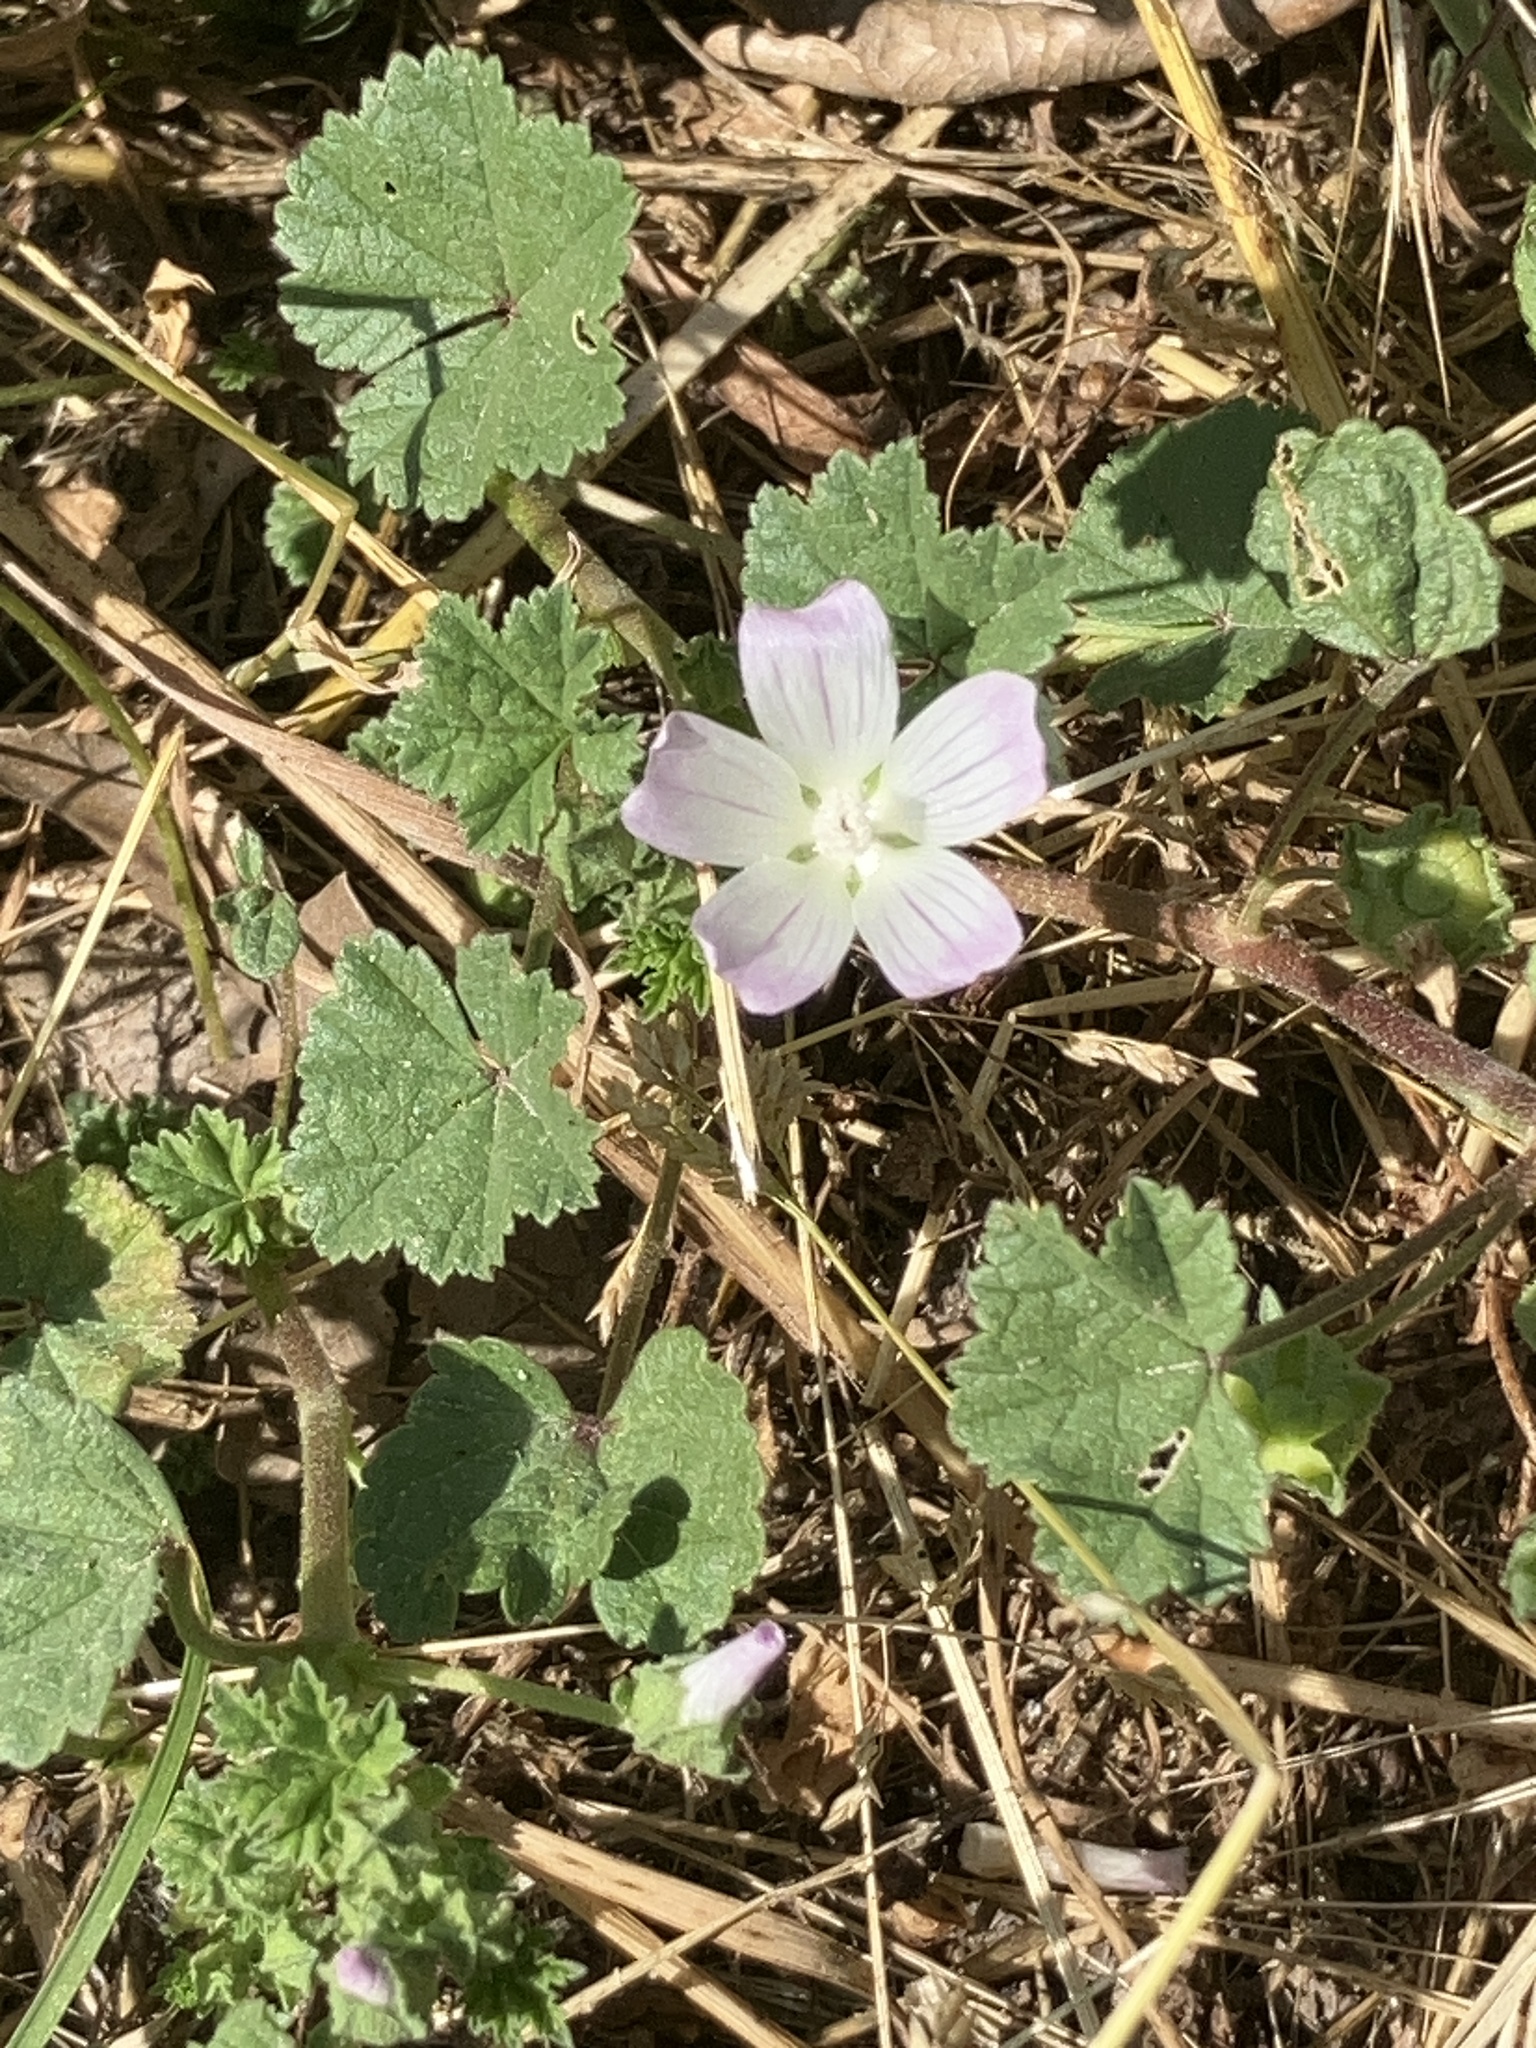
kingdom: Plantae
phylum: Tracheophyta
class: Magnoliopsida
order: Malvales
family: Malvaceae
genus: Malva
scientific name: Malva neglecta
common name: Common mallow
